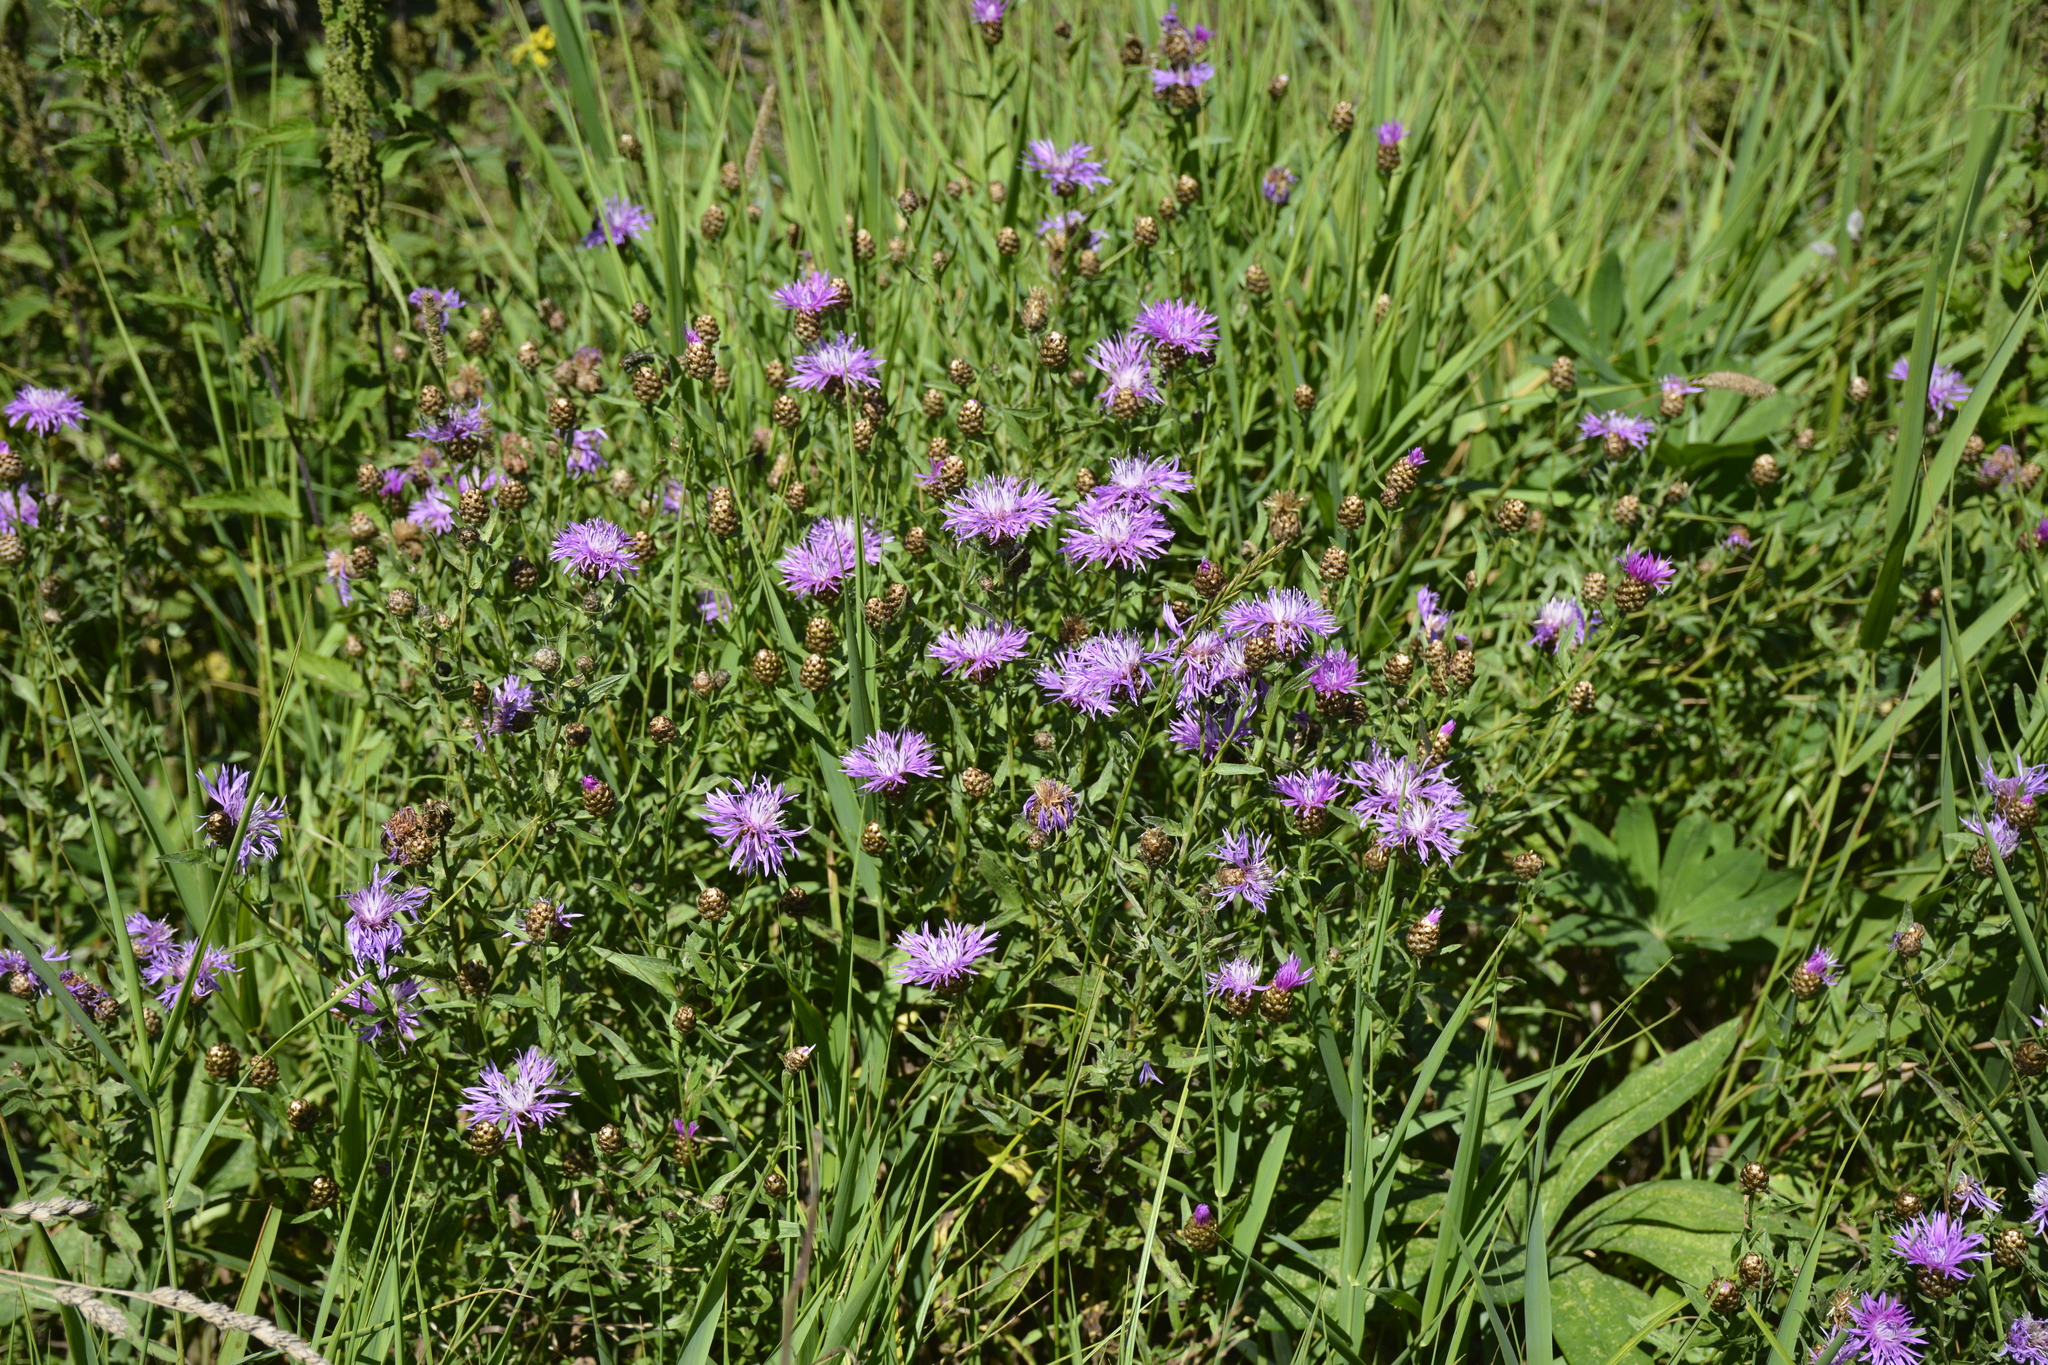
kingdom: Plantae
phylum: Tracheophyta
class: Magnoliopsida
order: Asterales
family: Asteraceae
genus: Centaurea
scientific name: Centaurea jacea
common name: Brown knapweed
